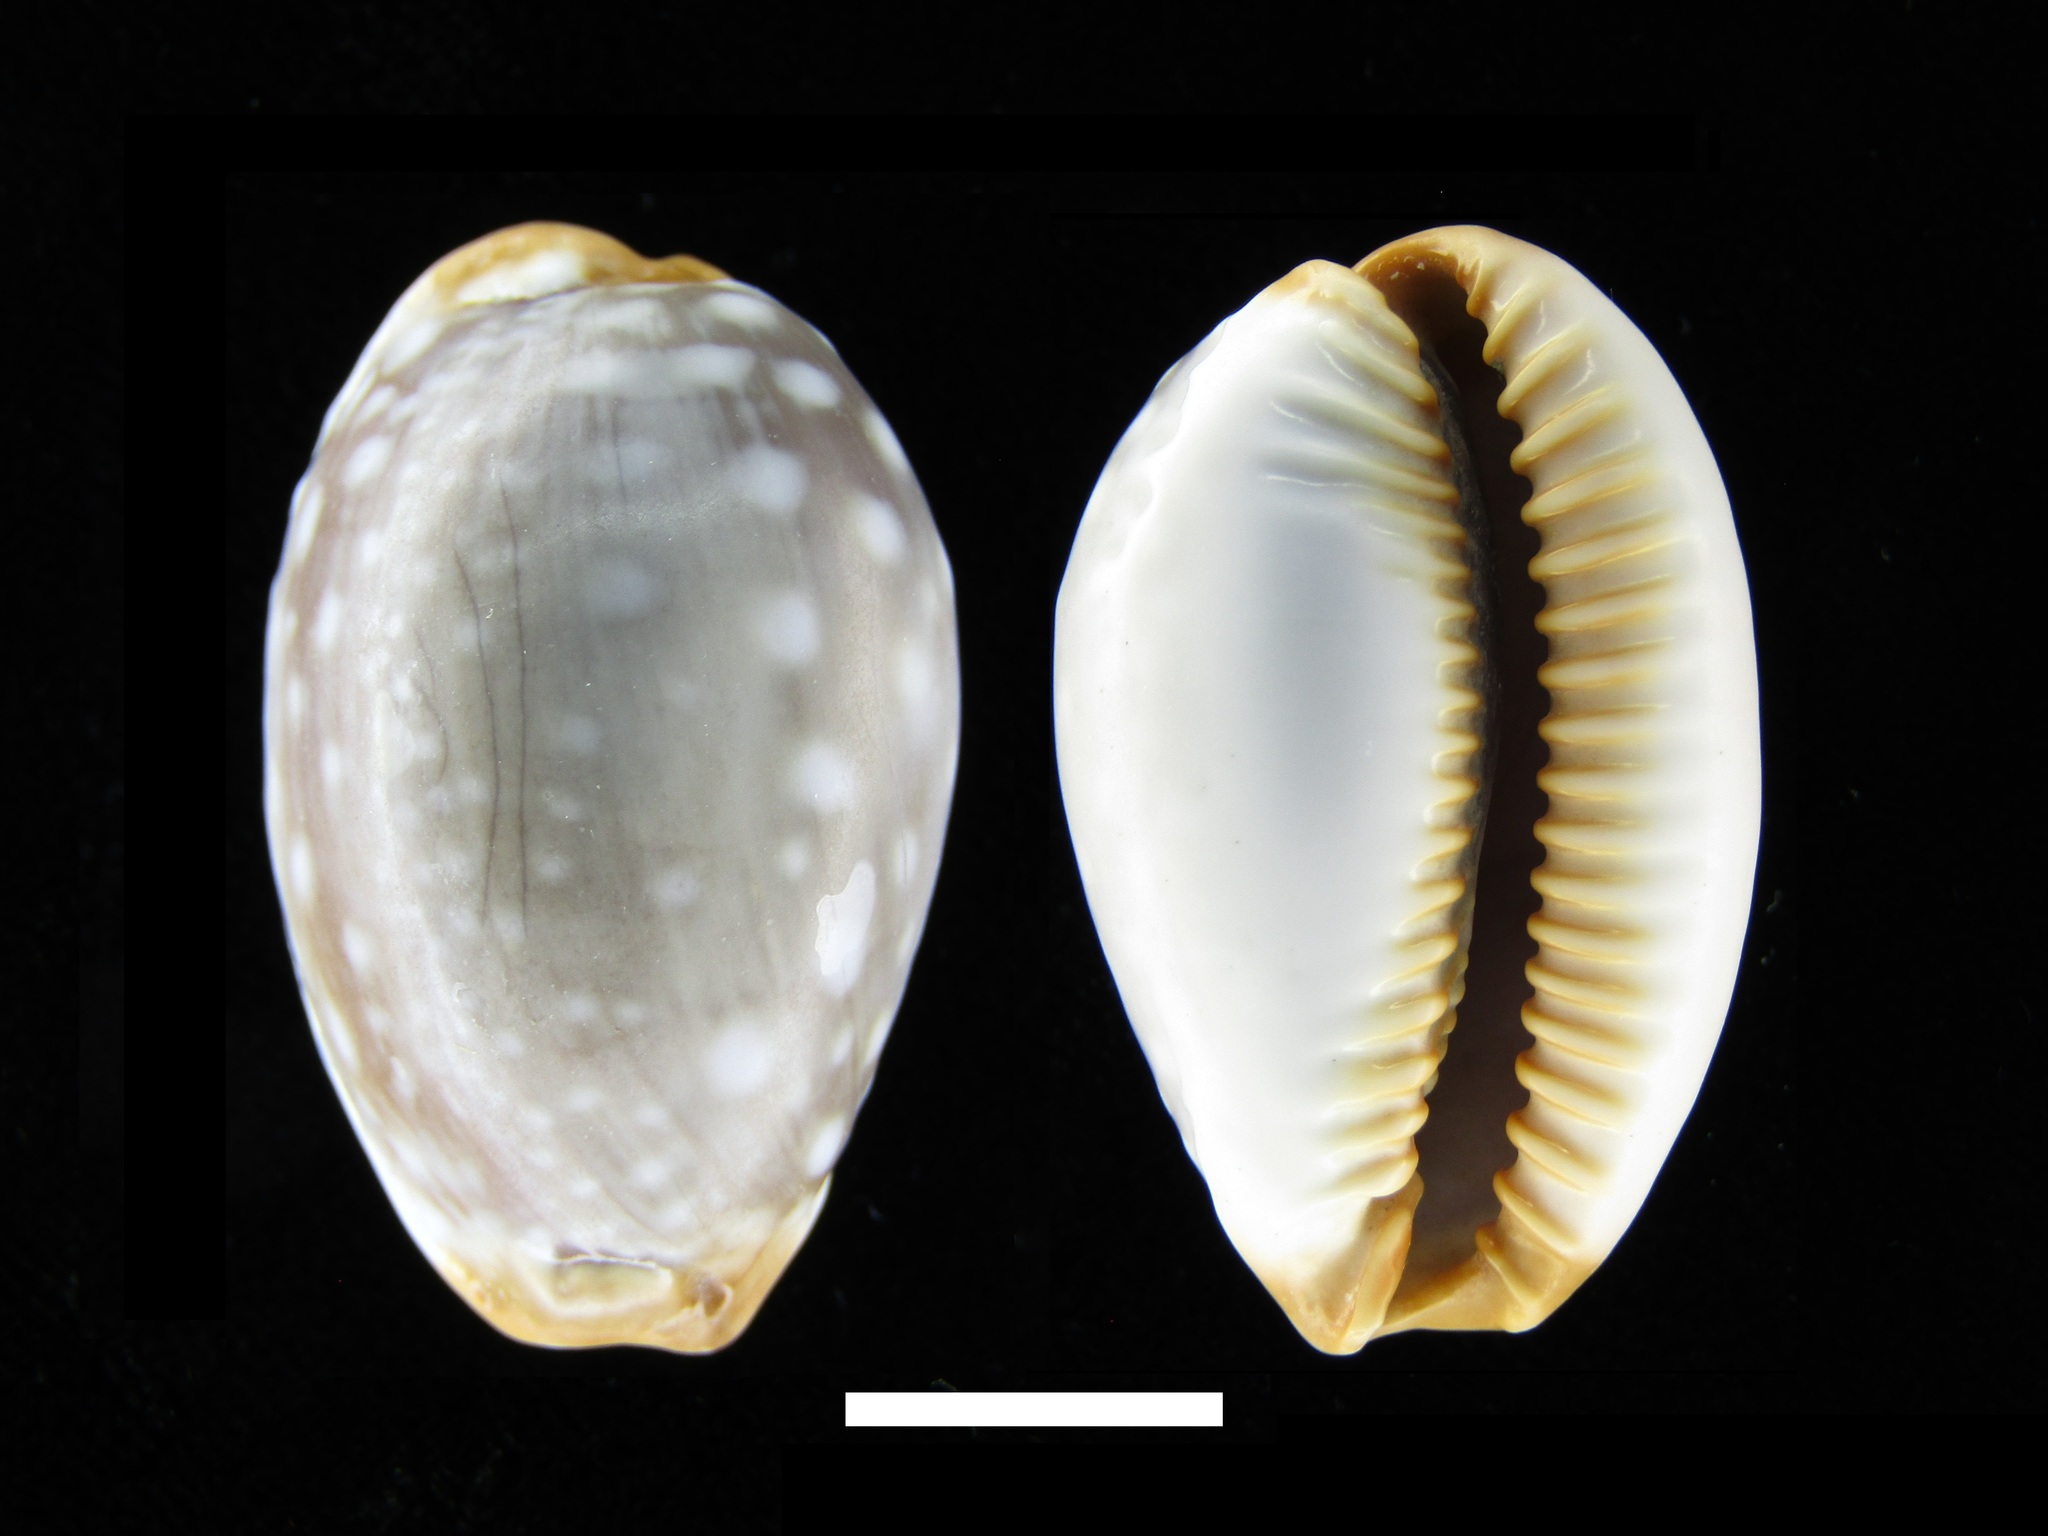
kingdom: Animalia
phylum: Mollusca
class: Gastropoda
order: Littorinimorpha
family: Cypraeidae
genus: Staphylaea
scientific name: Staphylaea limacina
